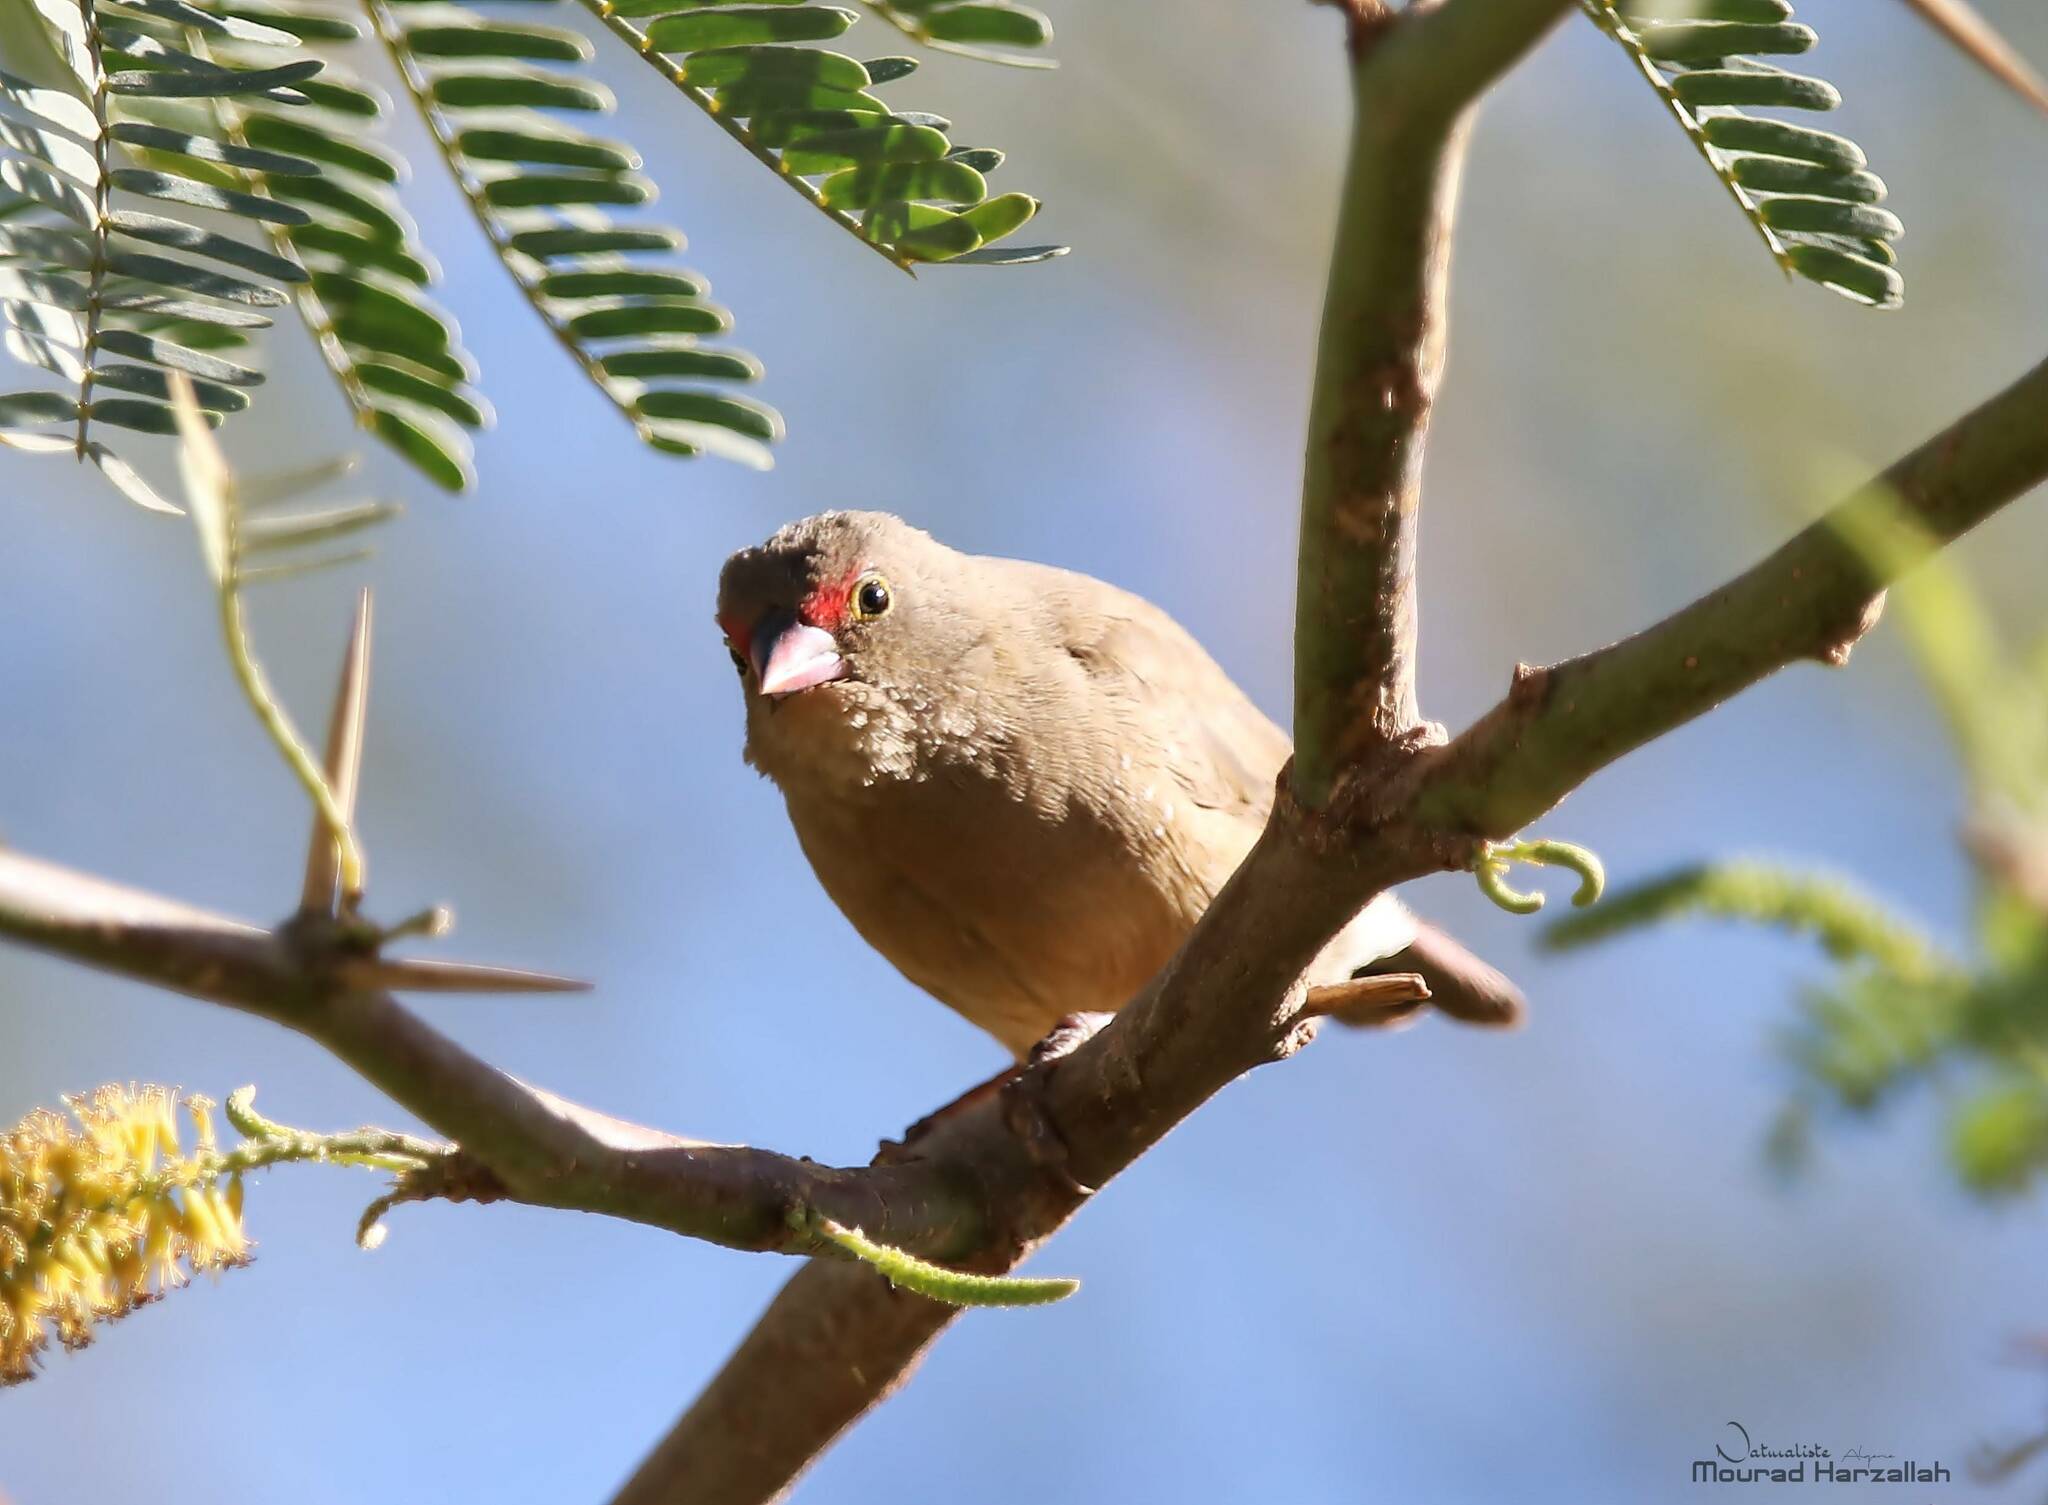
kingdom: Animalia
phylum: Chordata
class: Aves
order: Passeriformes
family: Estrildidae
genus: Lagonosticta
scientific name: Lagonosticta senegala
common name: Red-billed firefinch
